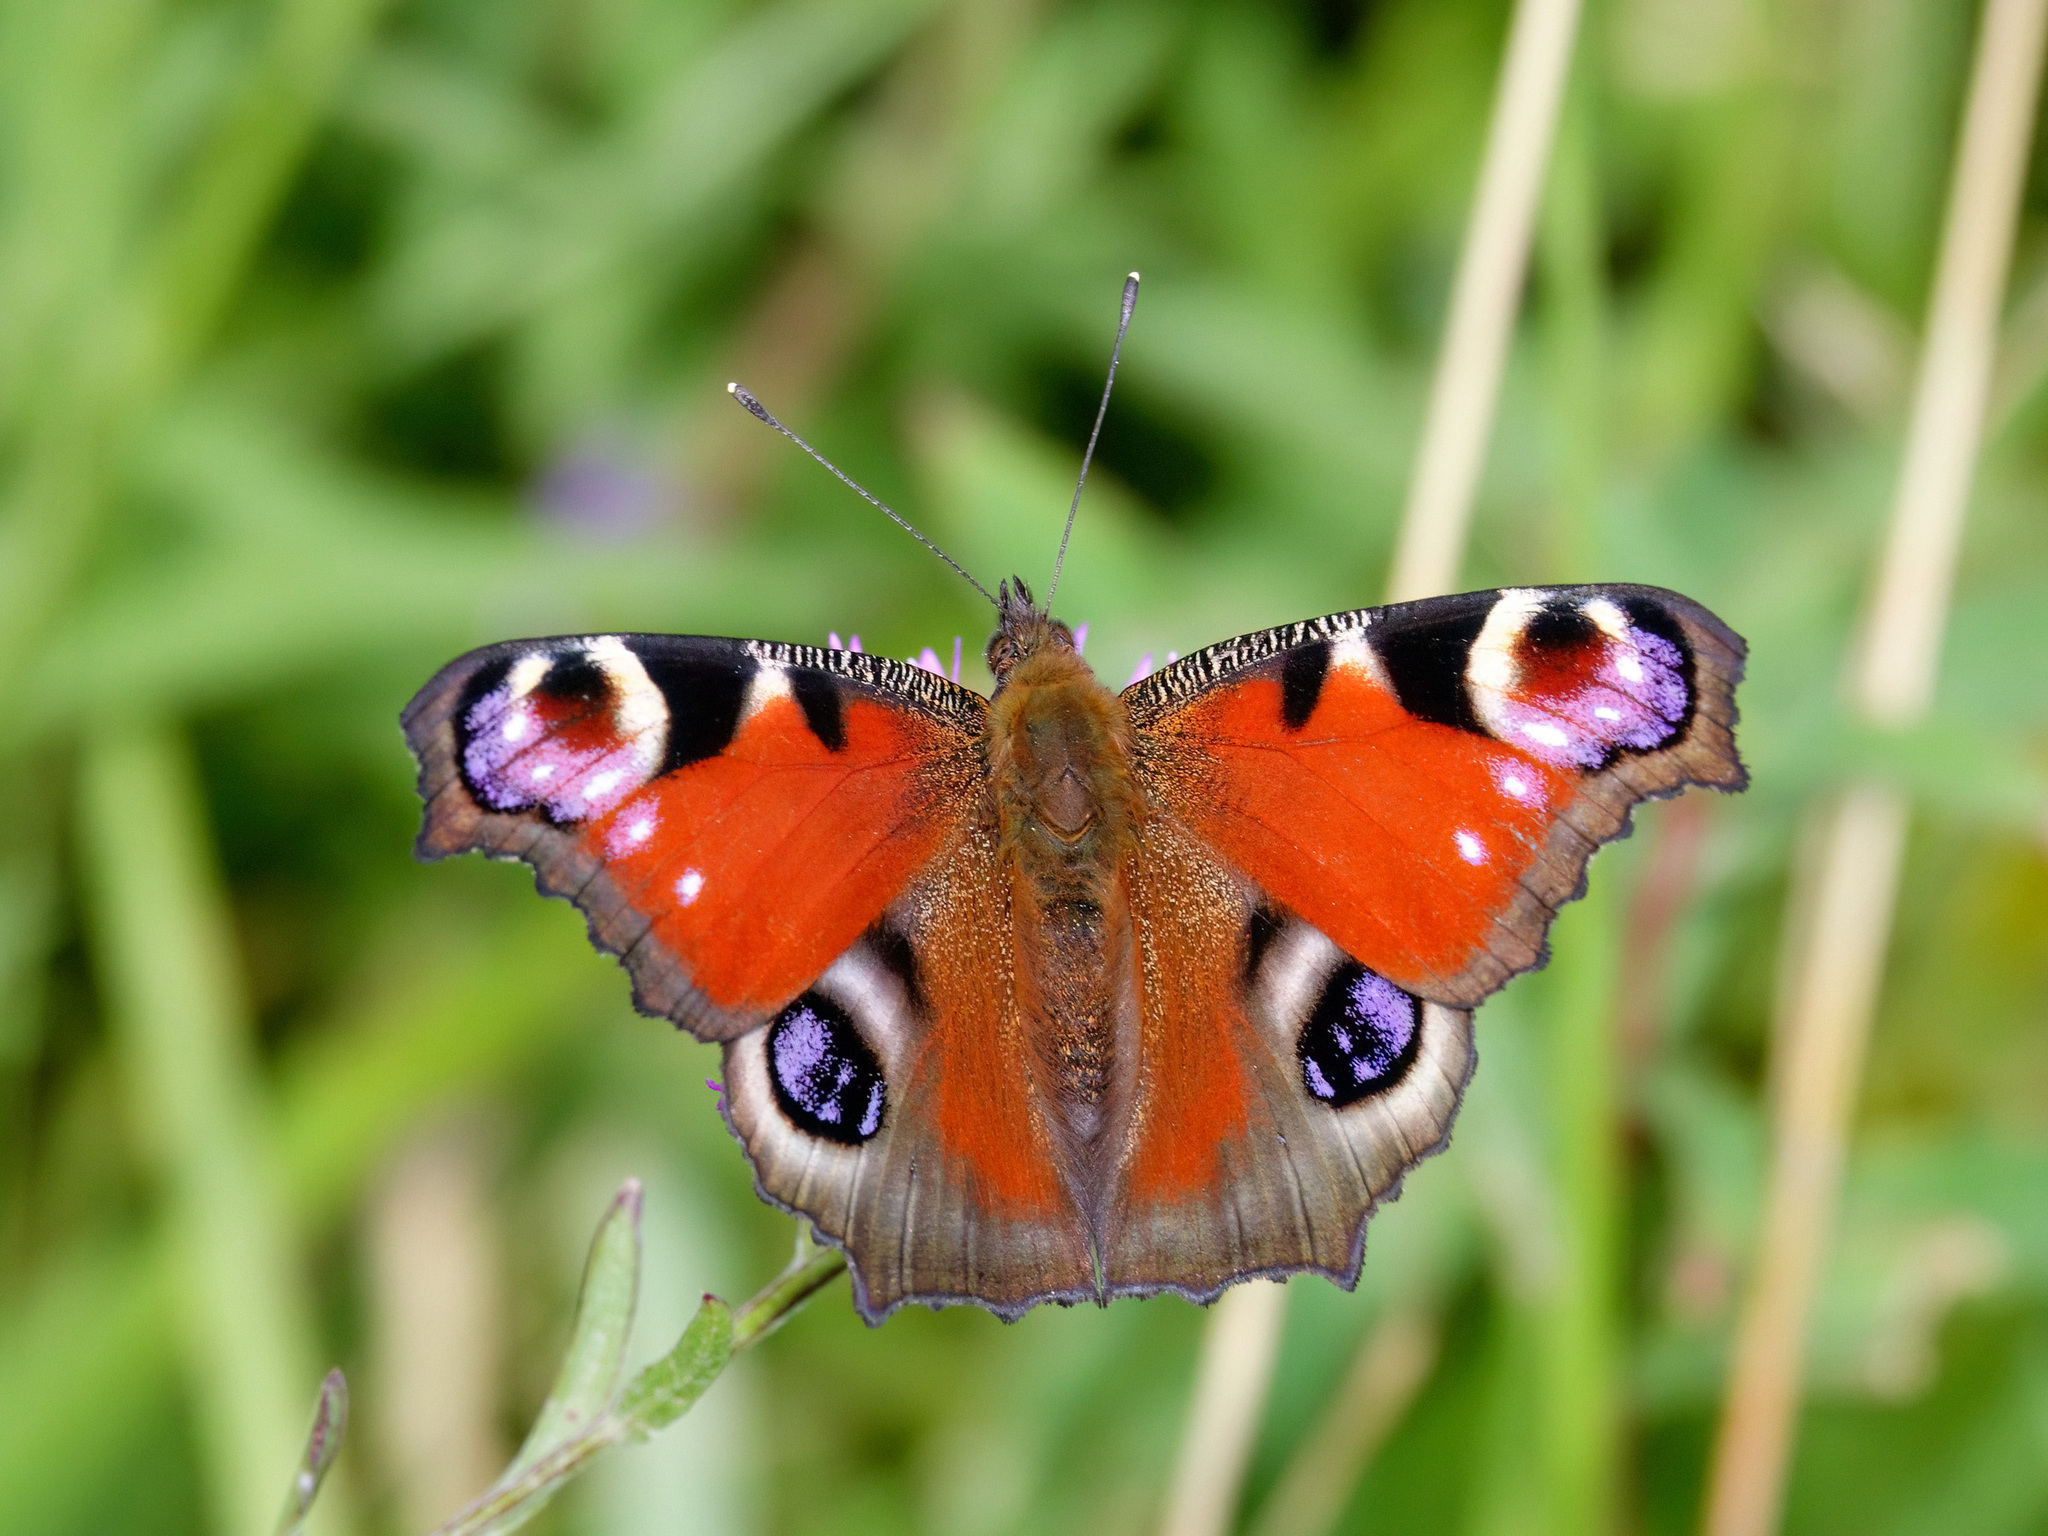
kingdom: Animalia
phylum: Arthropoda
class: Insecta
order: Lepidoptera
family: Nymphalidae
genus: Aglais
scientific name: Aglais io
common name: Peacock
